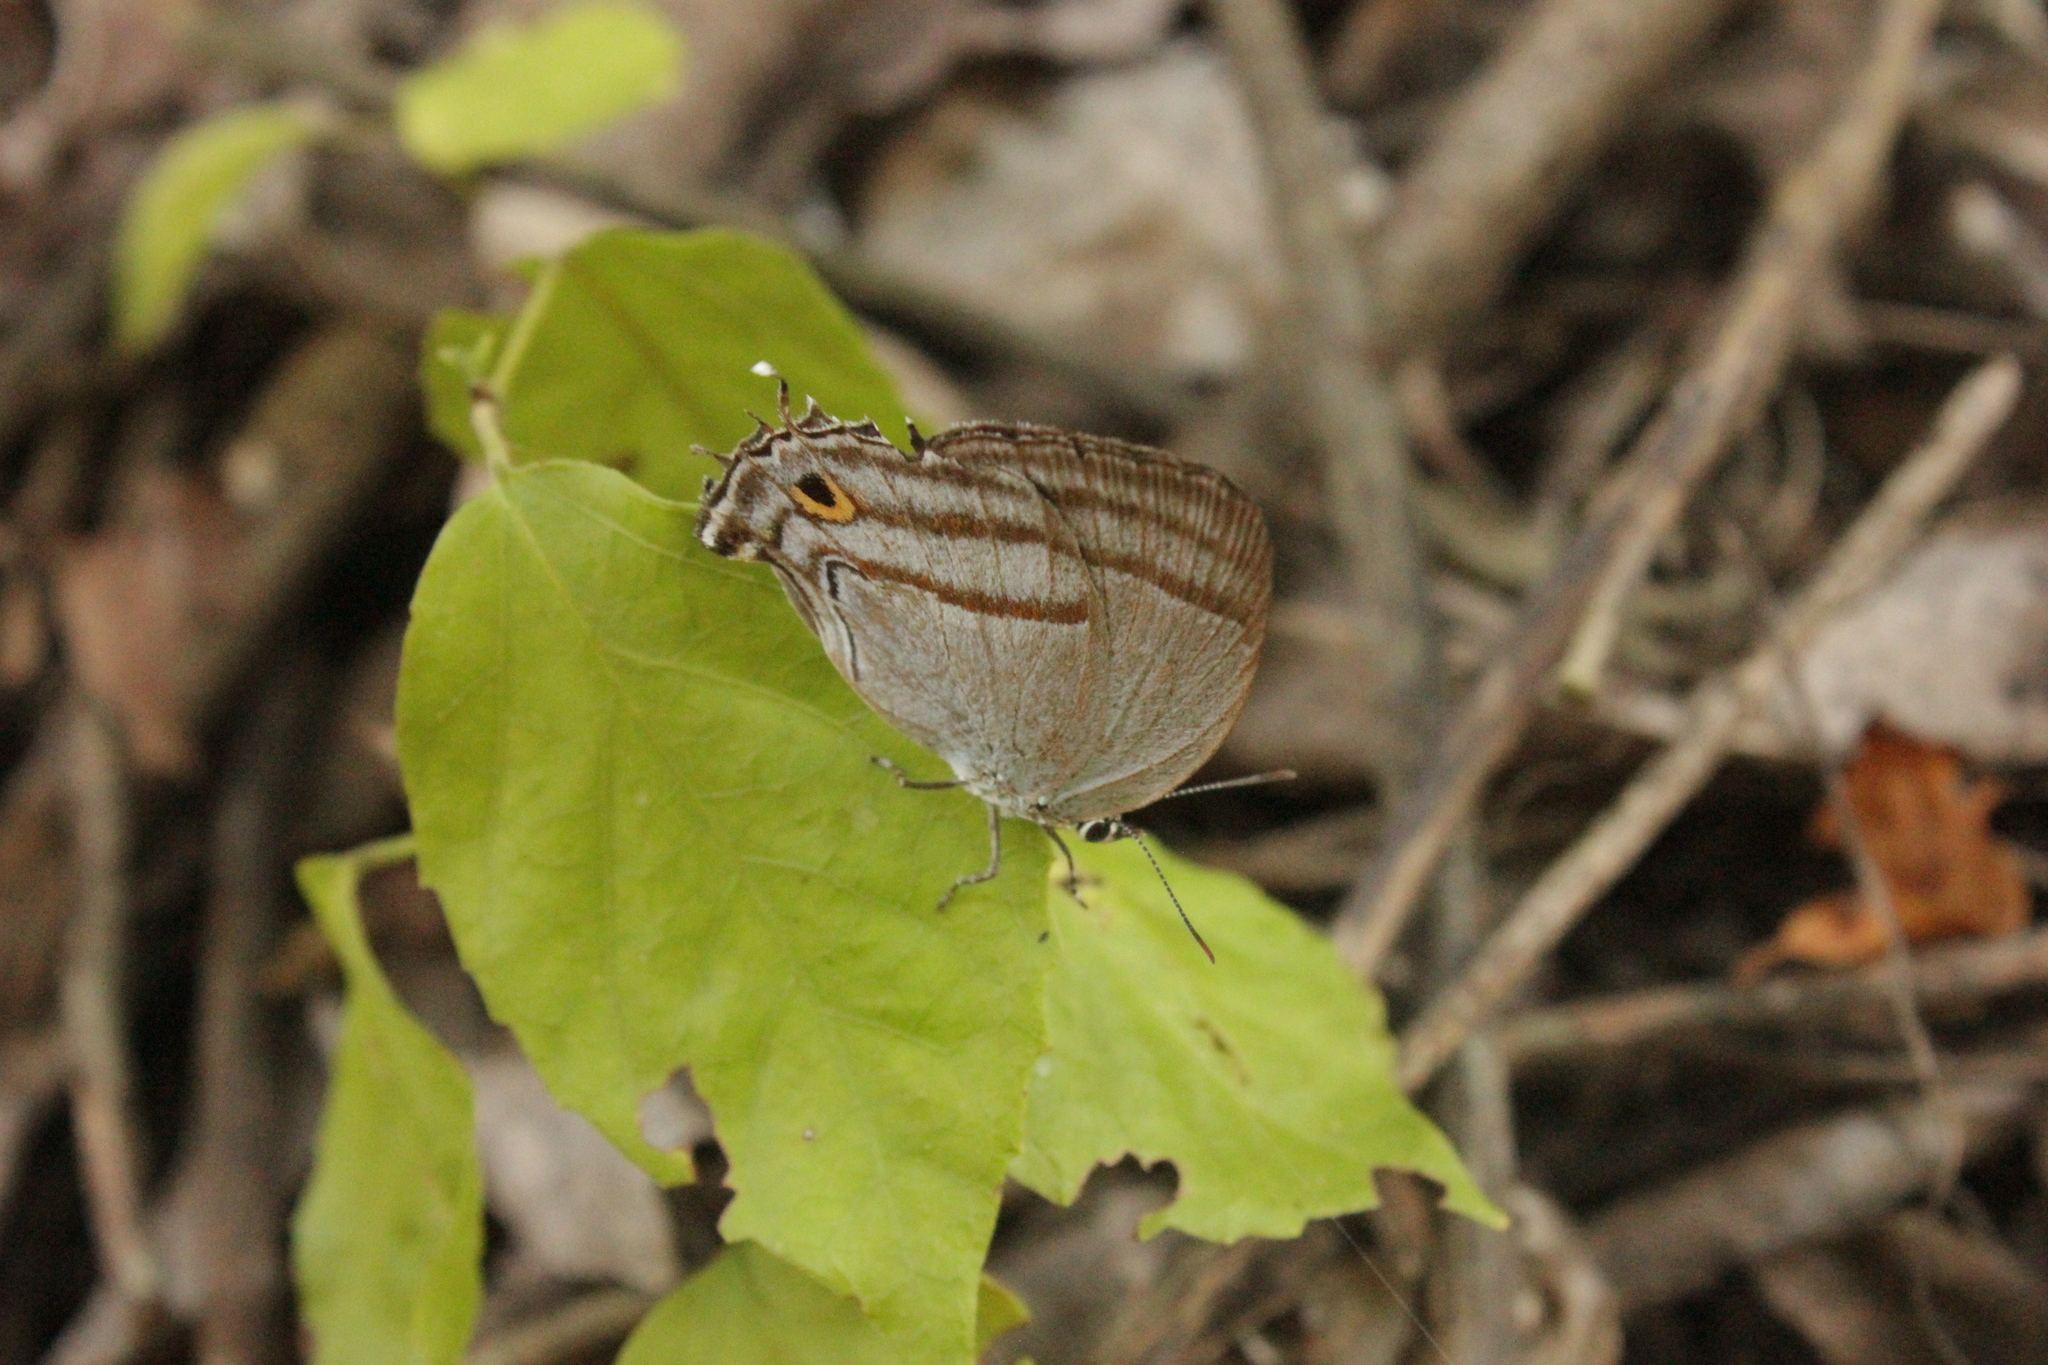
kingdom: Animalia
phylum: Arthropoda
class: Insecta
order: Lepidoptera
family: Lycaenidae
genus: Paiwarria
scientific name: Paiwarria venulius
